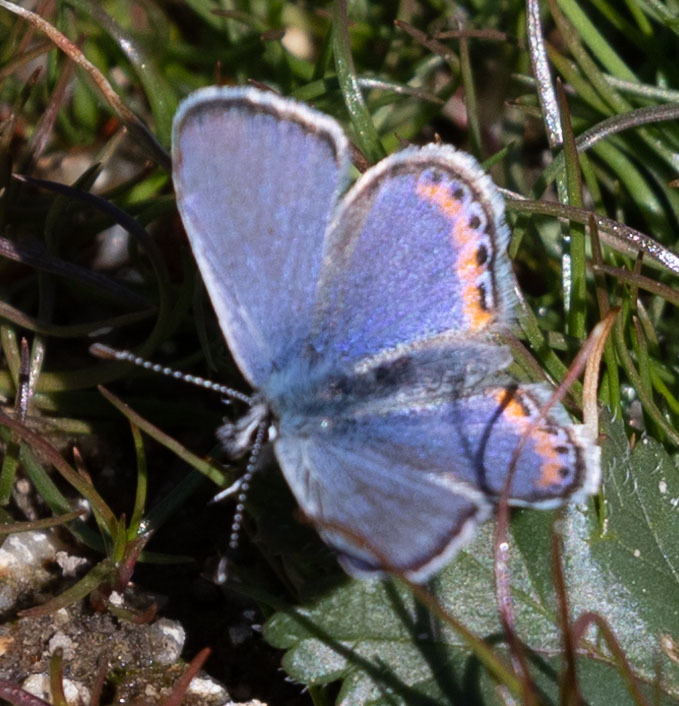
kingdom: Animalia
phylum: Arthropoda
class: Insecta
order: Lepidoptera
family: Lycaenidae
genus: Icaricia
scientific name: Icaricia acmon
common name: Acmon blue
